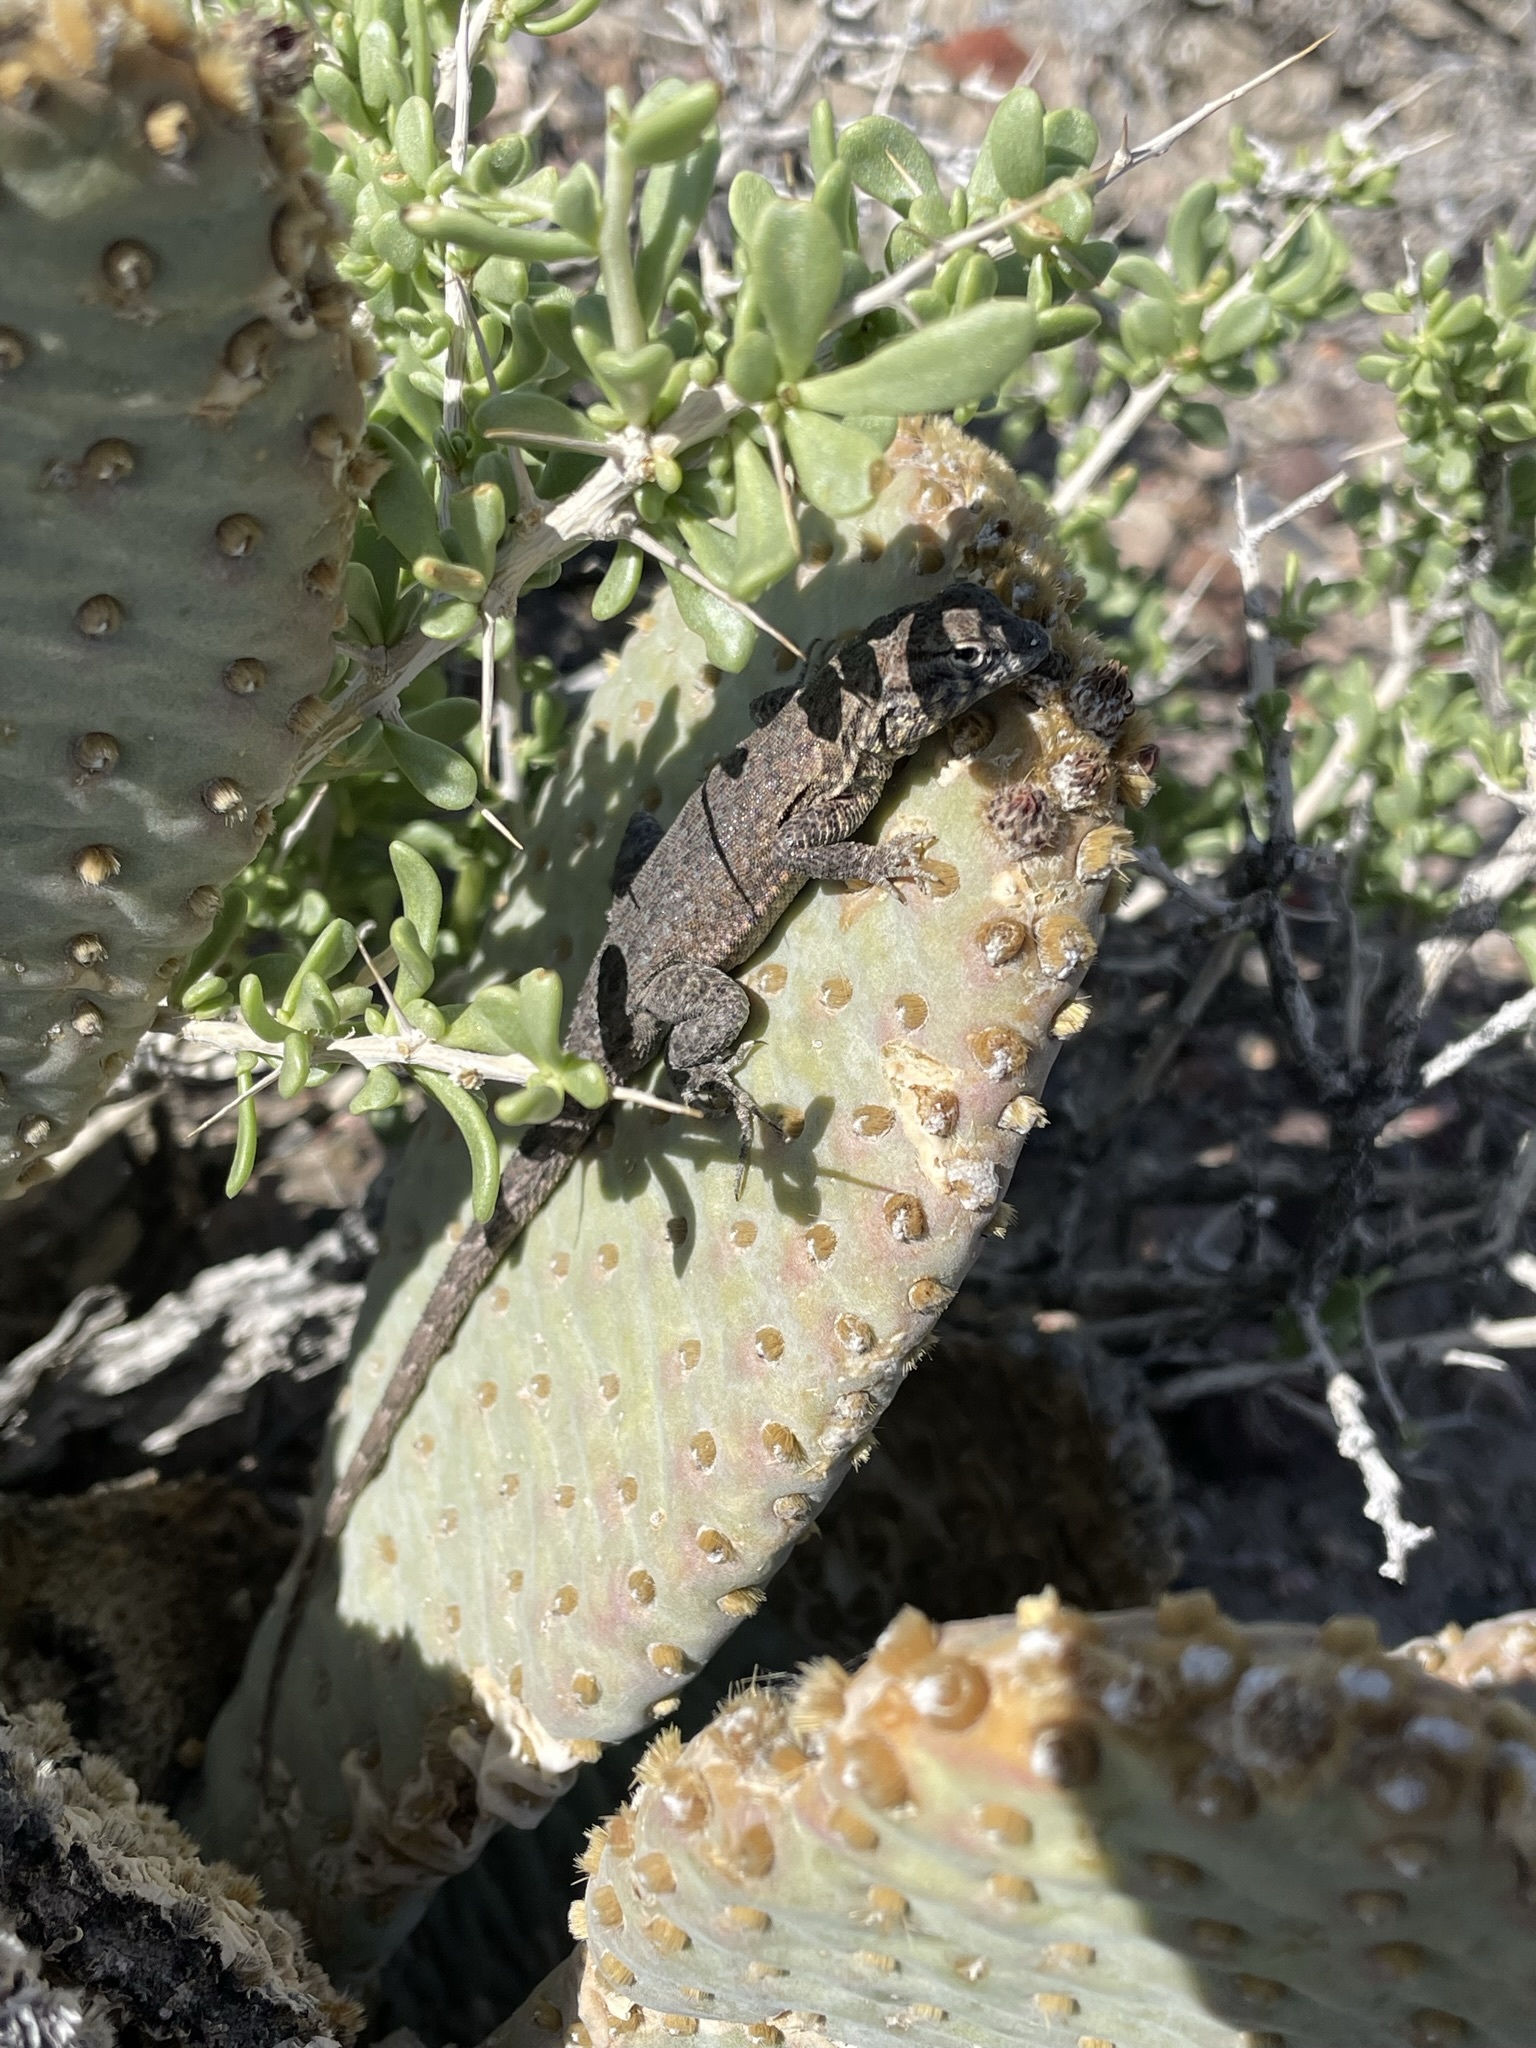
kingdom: Animalia
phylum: Chordata
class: Squamata
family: Phrynosomatidae
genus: Uta
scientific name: Uta stansburiana
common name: Side-blotched lizard
